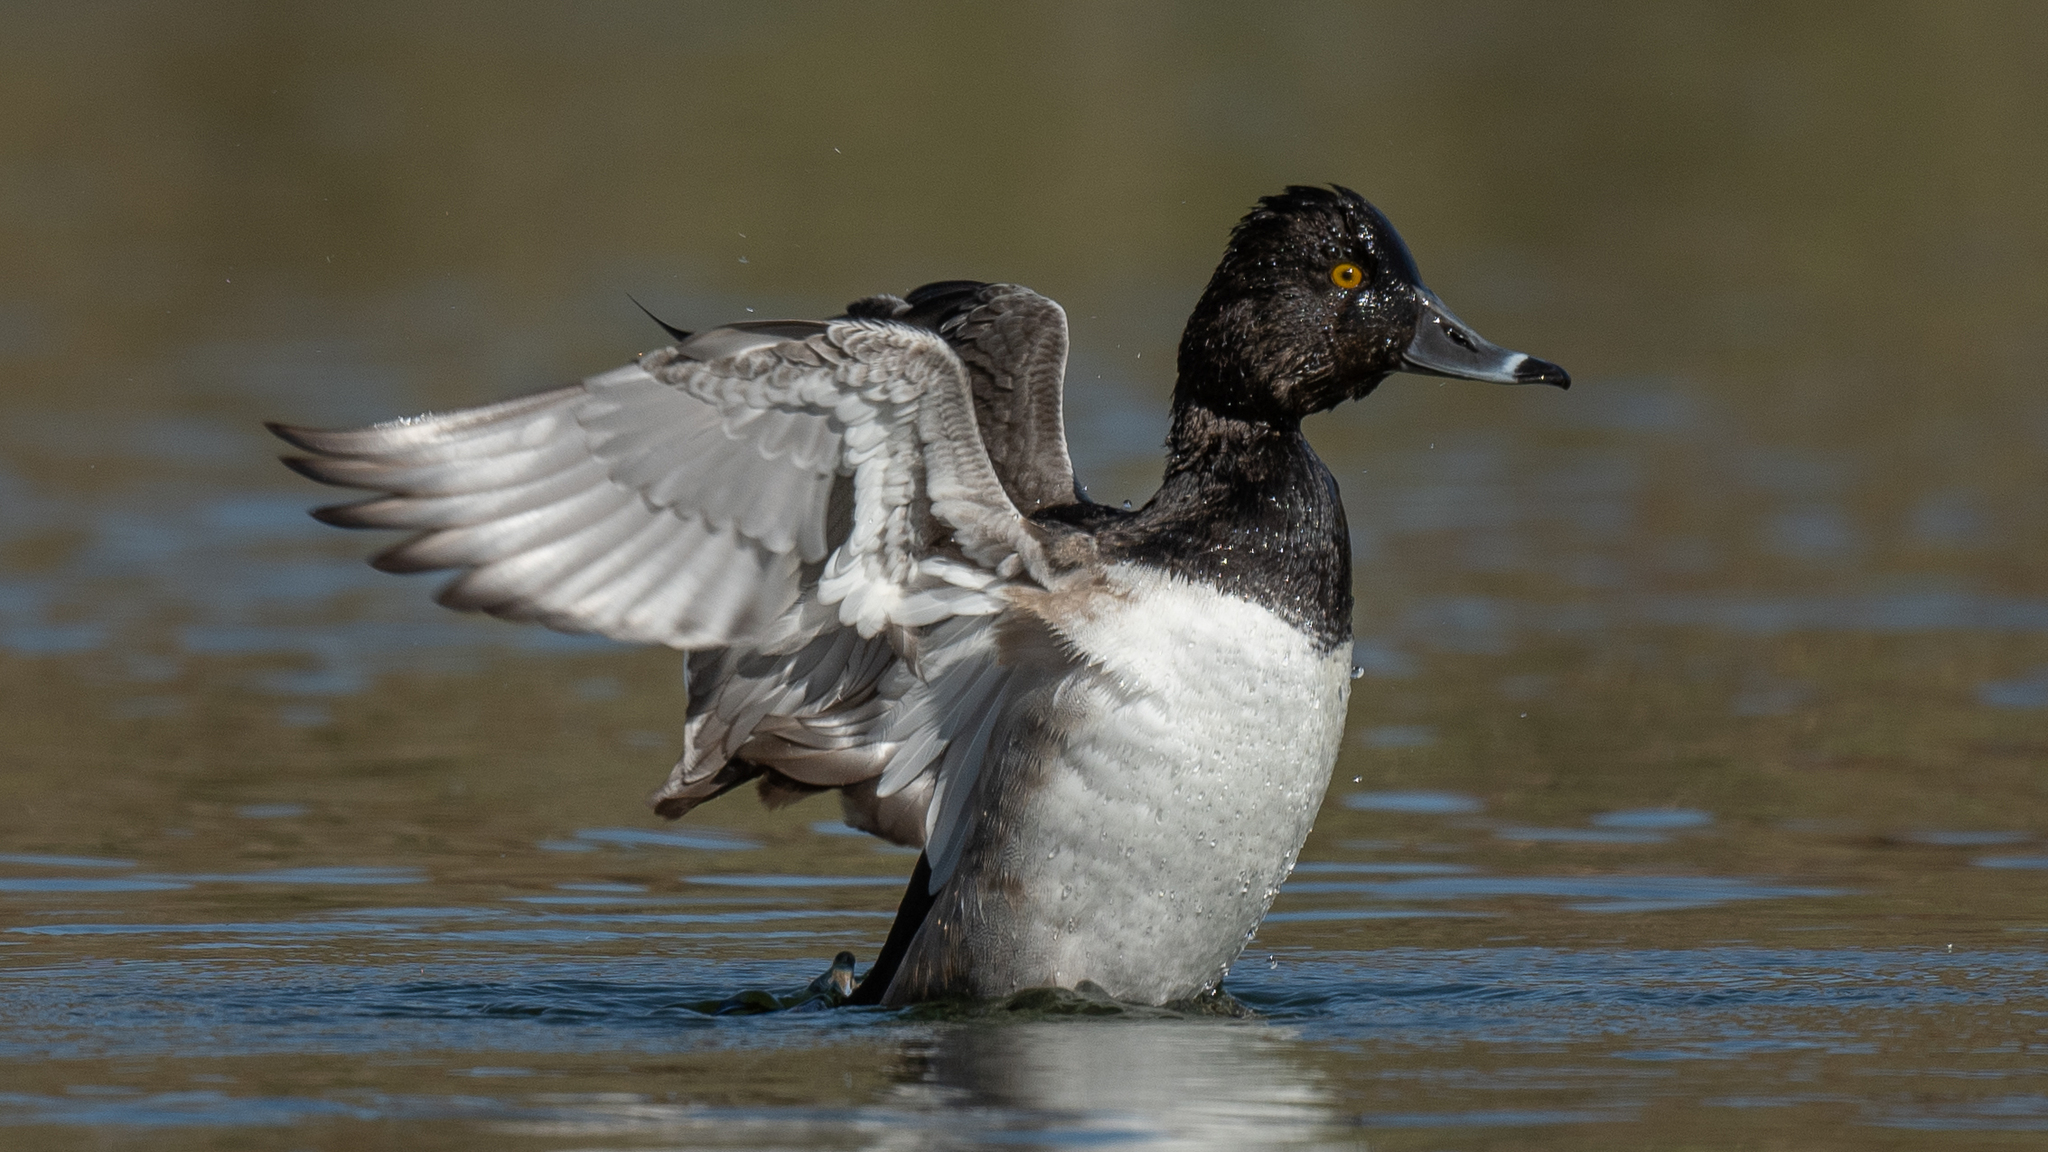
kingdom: Animalia
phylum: Chordata
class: Aves
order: Anseriformes
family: Anatidae
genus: Aythya
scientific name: Aythya collaris
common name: Ring-necked duck
